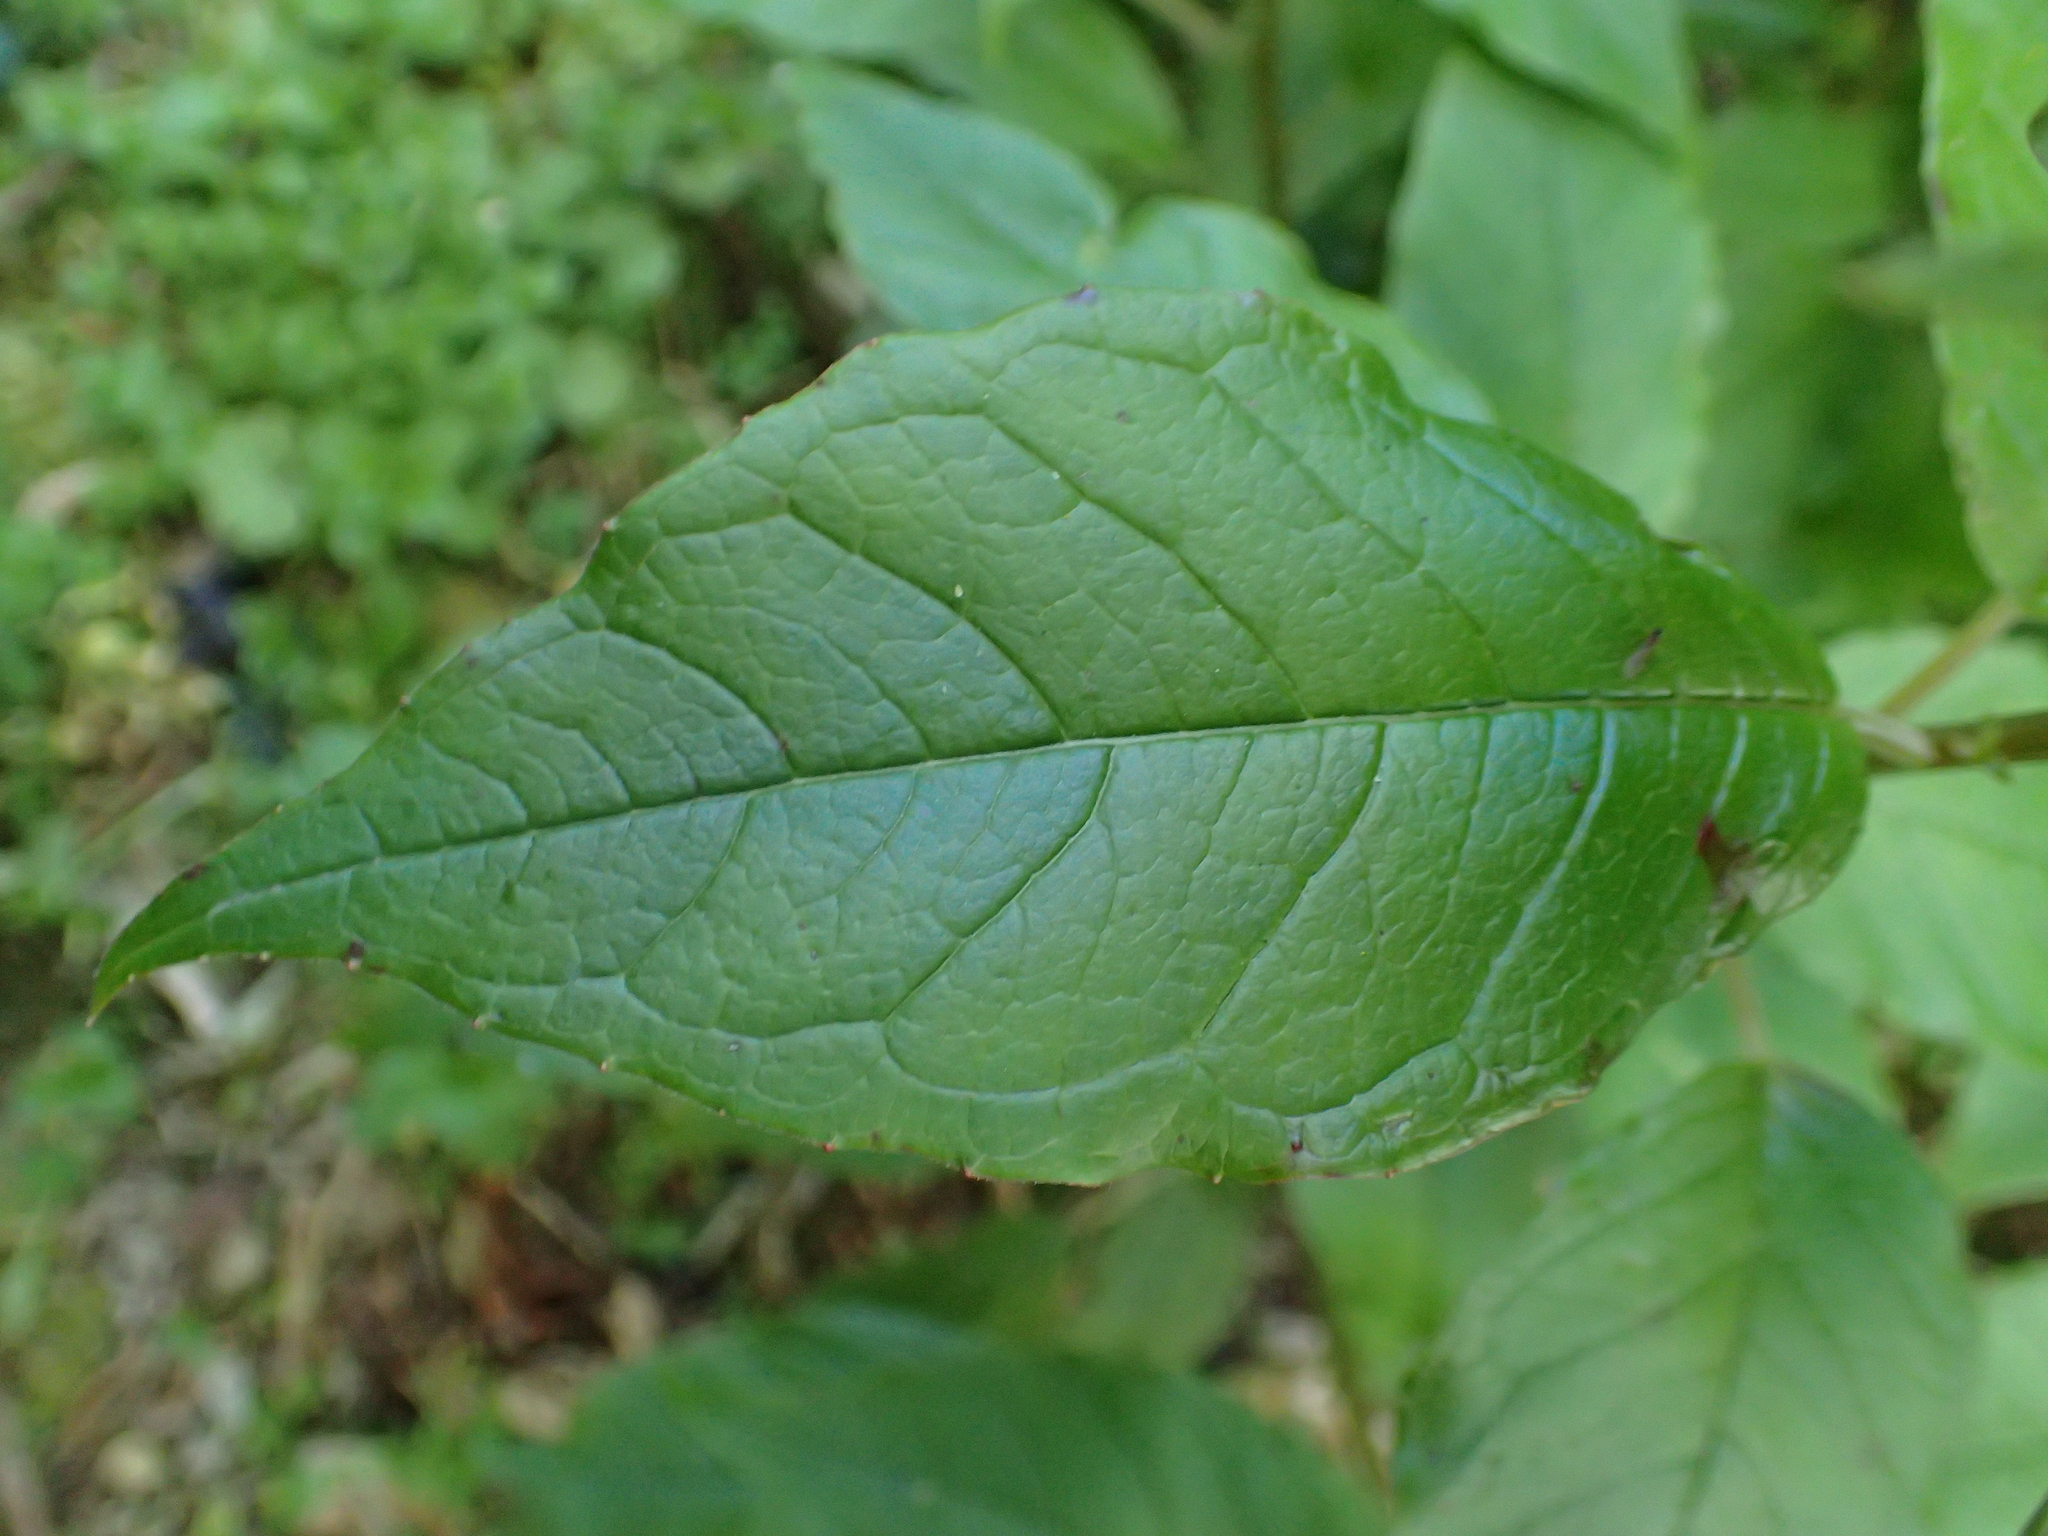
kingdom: Plantae
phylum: Tracheophyta
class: Magnoliopsida
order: Myrtales
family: Onagraceae
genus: Fuchsia
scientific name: Fuchsia excorticata
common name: Tree fuchsia
